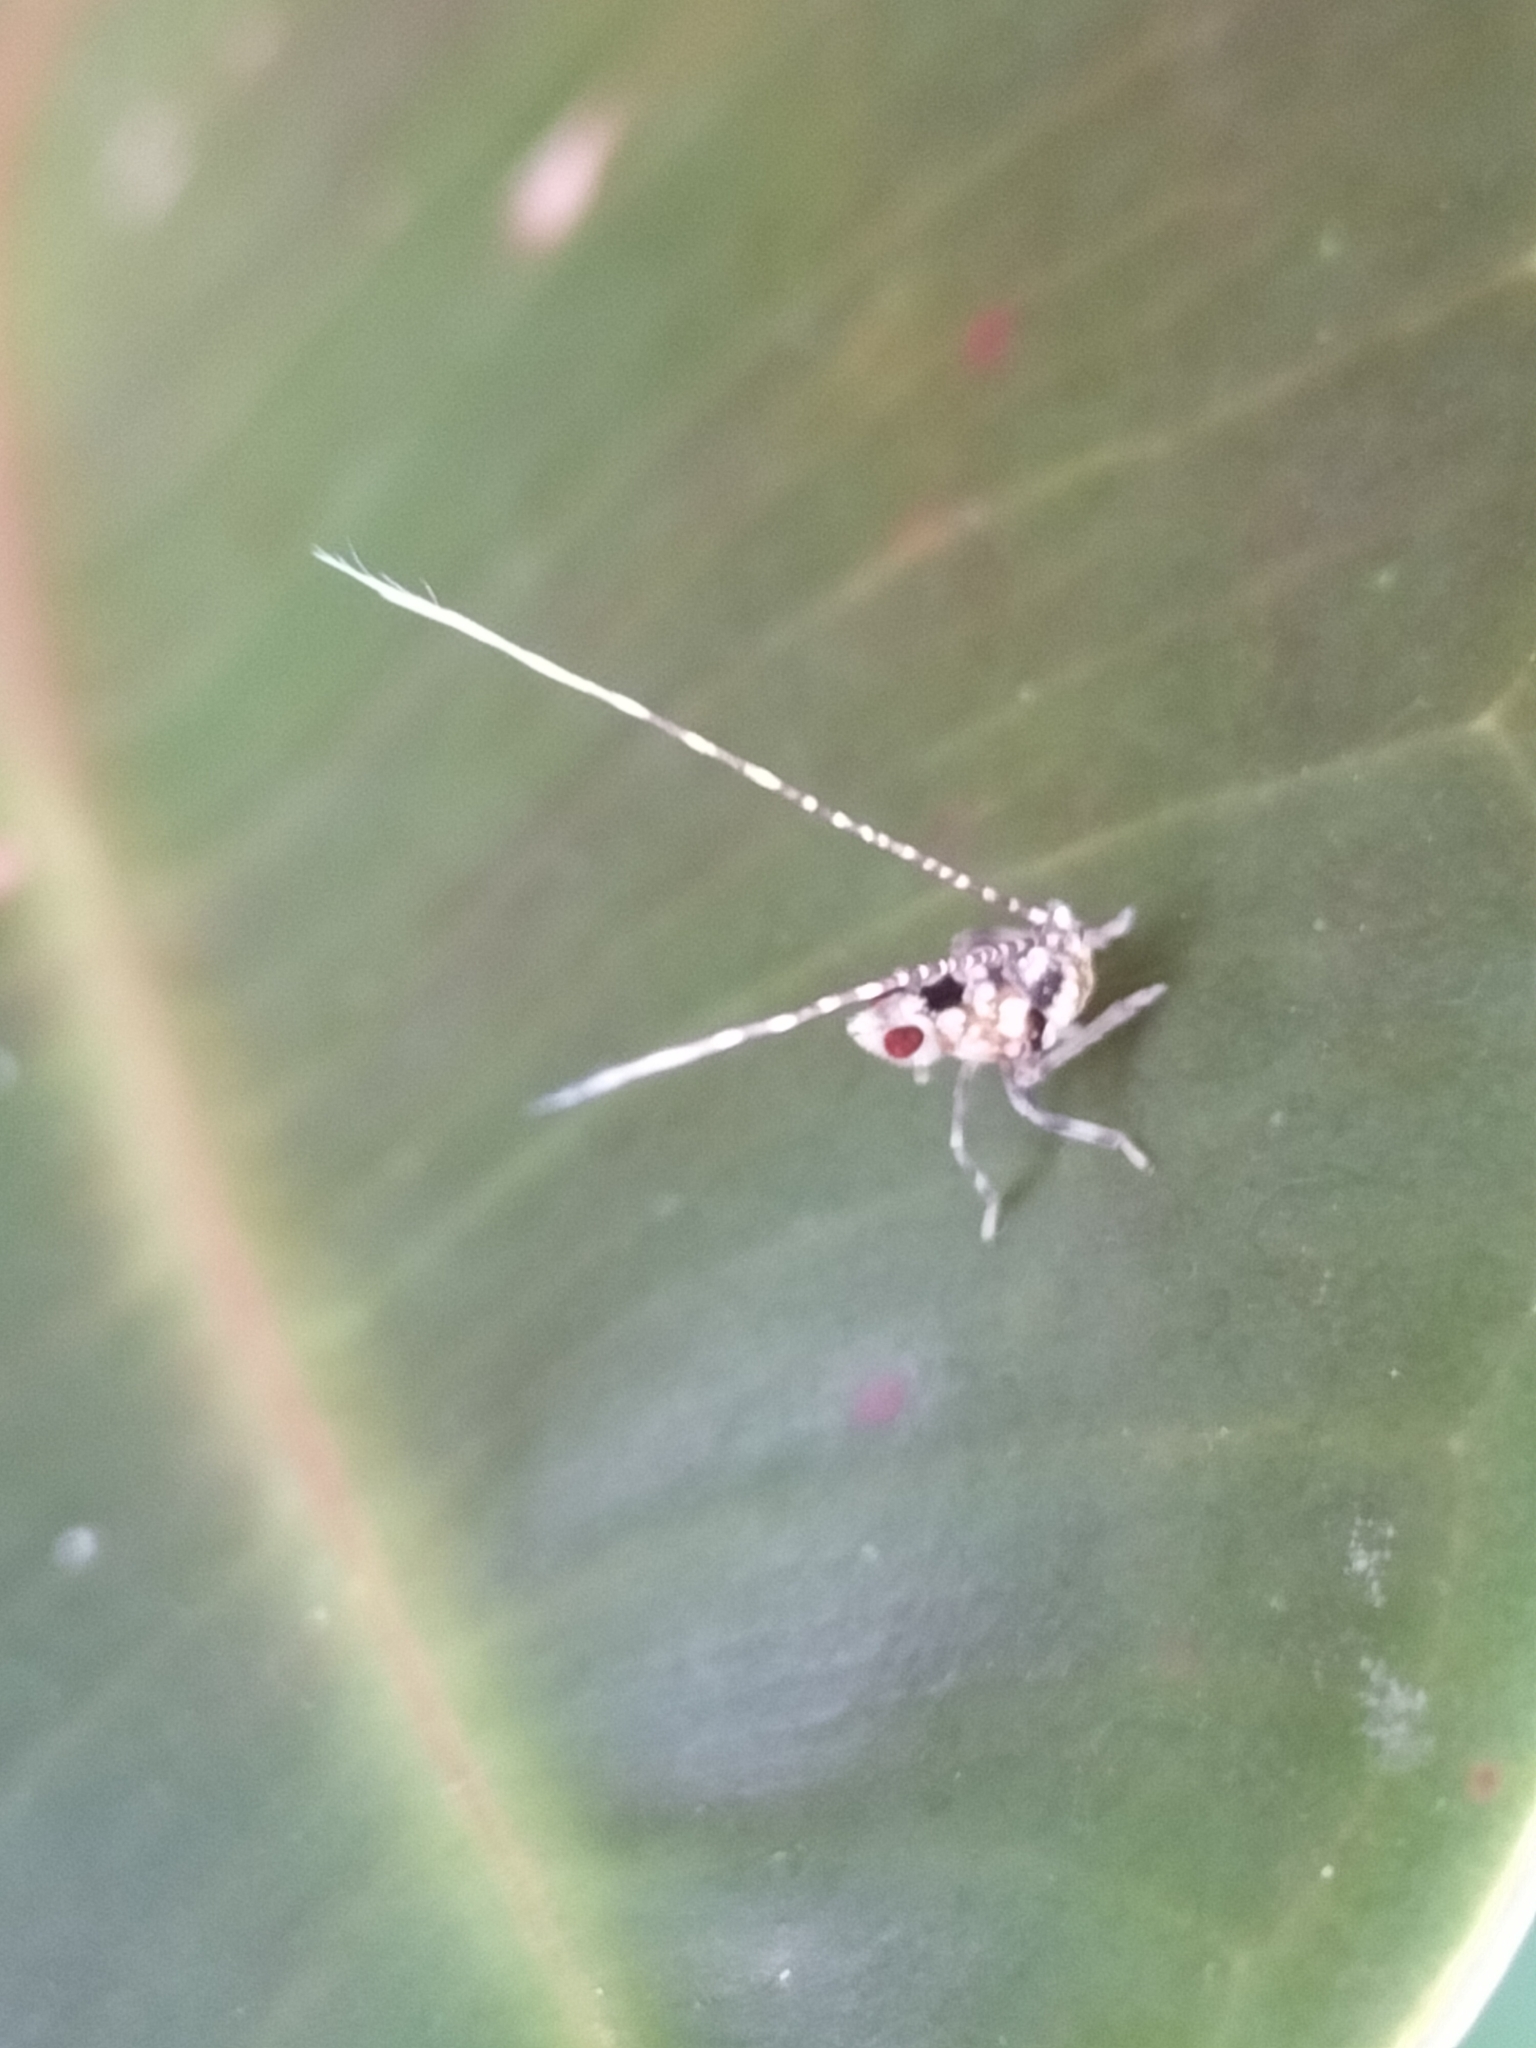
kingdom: Animalia
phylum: Arthropoda
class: Insecta
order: Hemiptera
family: Lophopidae
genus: Magia
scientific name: Magia subocellata
